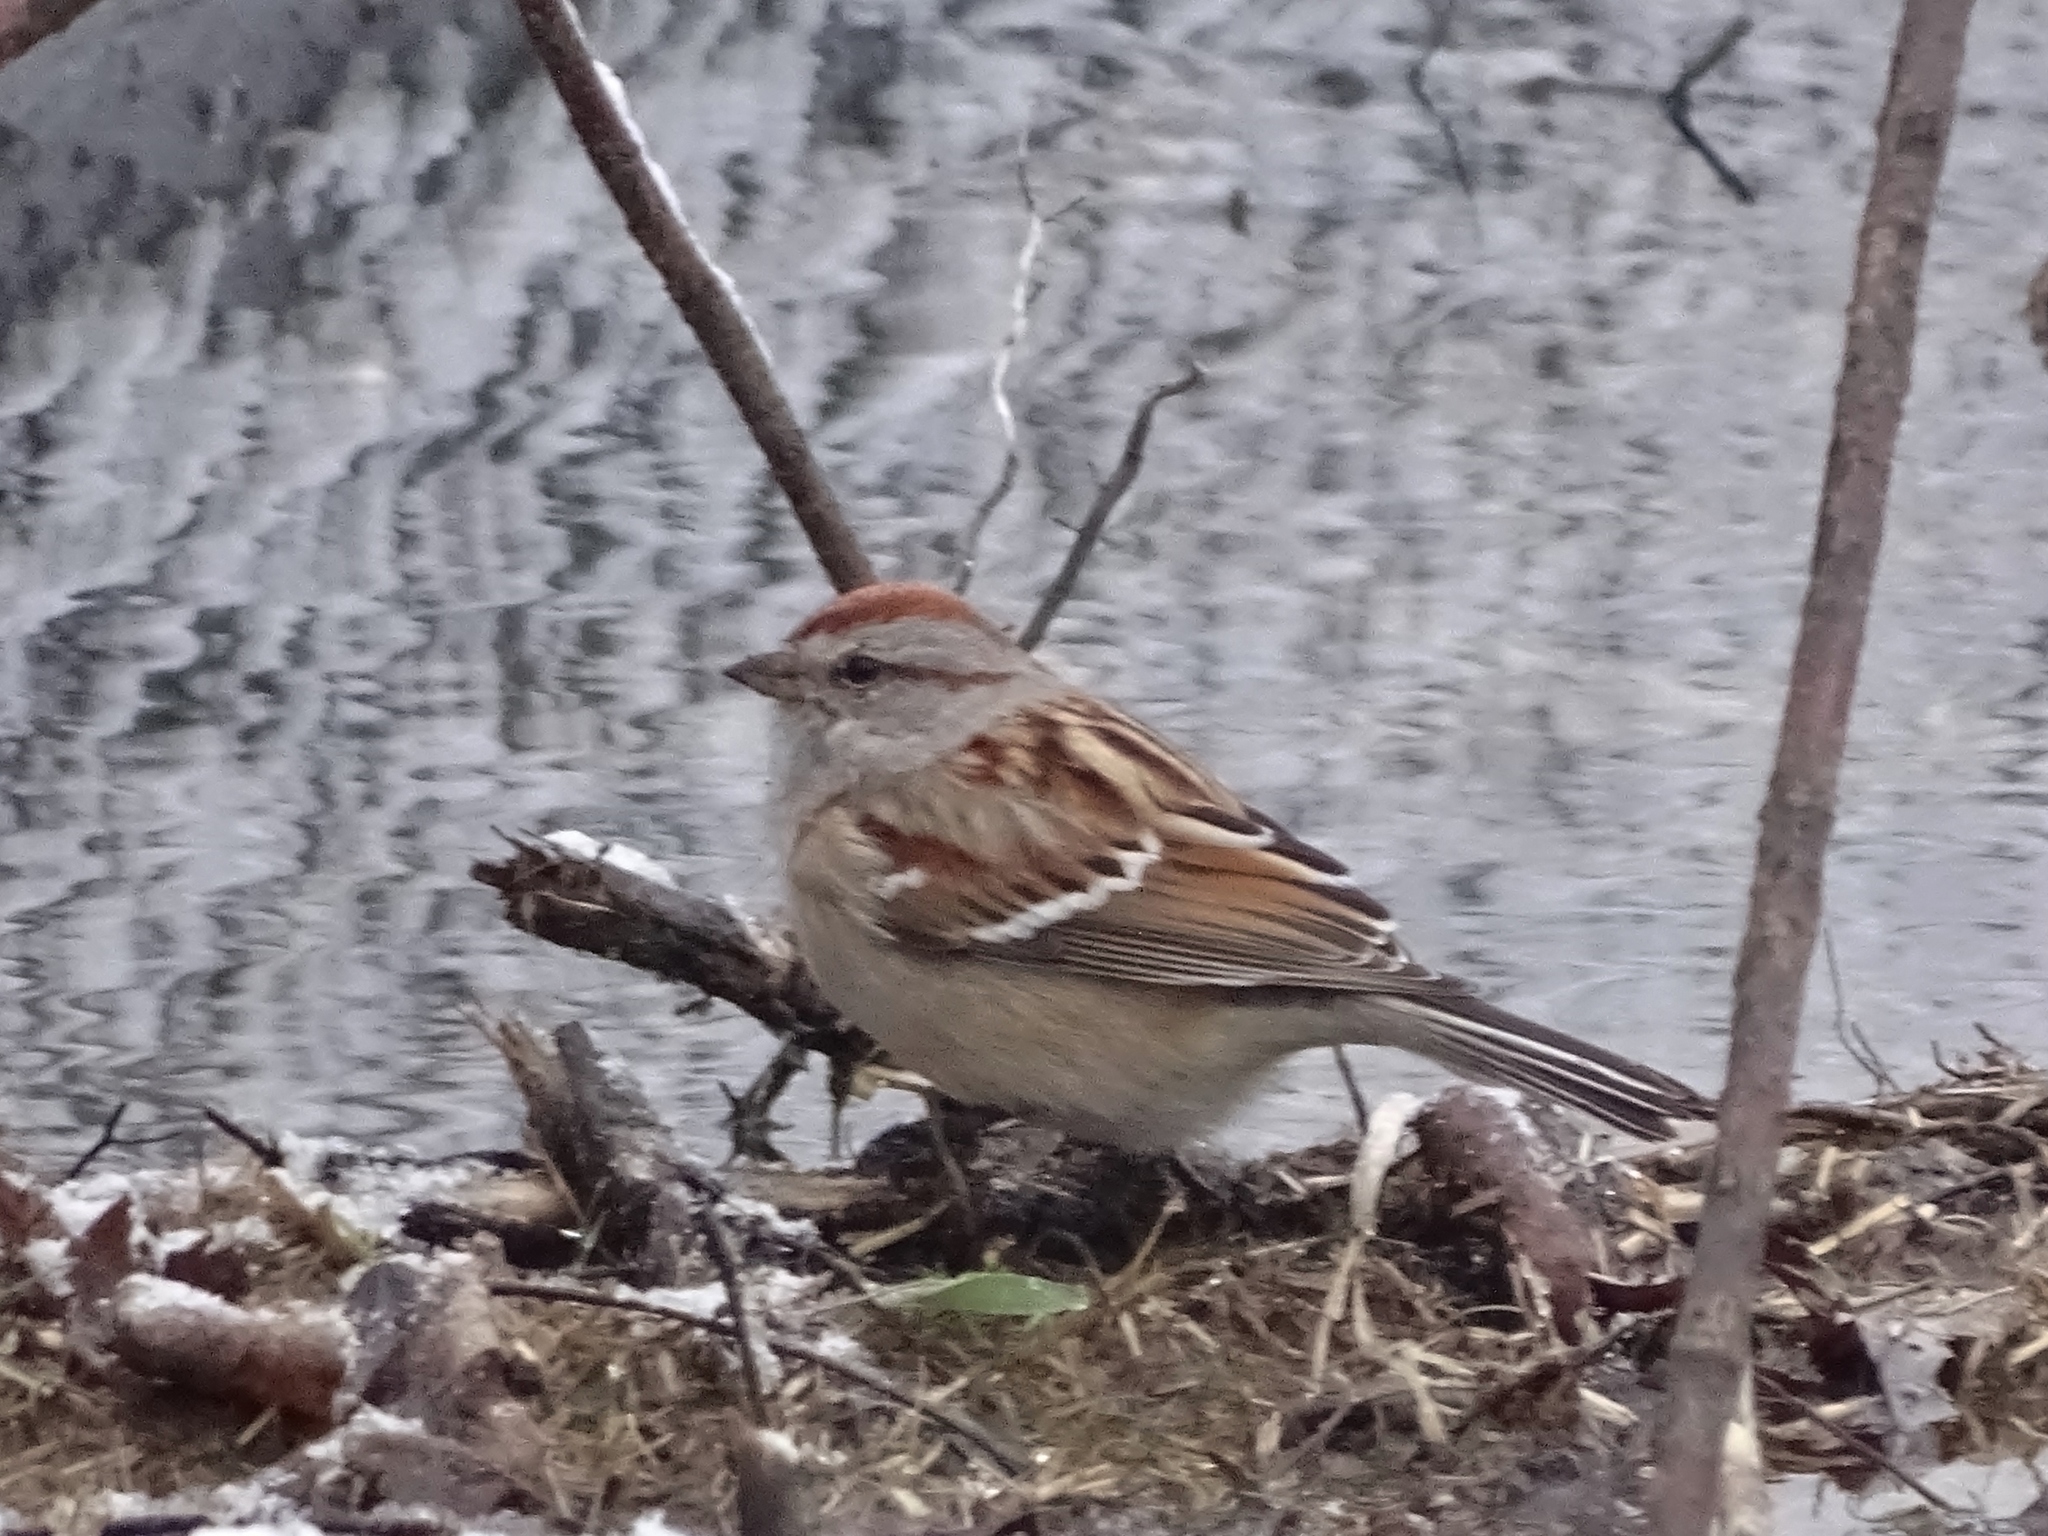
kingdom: Animalia
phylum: Chordata
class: Aves
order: Passeriformes
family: Passerellidae
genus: Spizelloides
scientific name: Spizelloides arborea
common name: American tree sparrow
